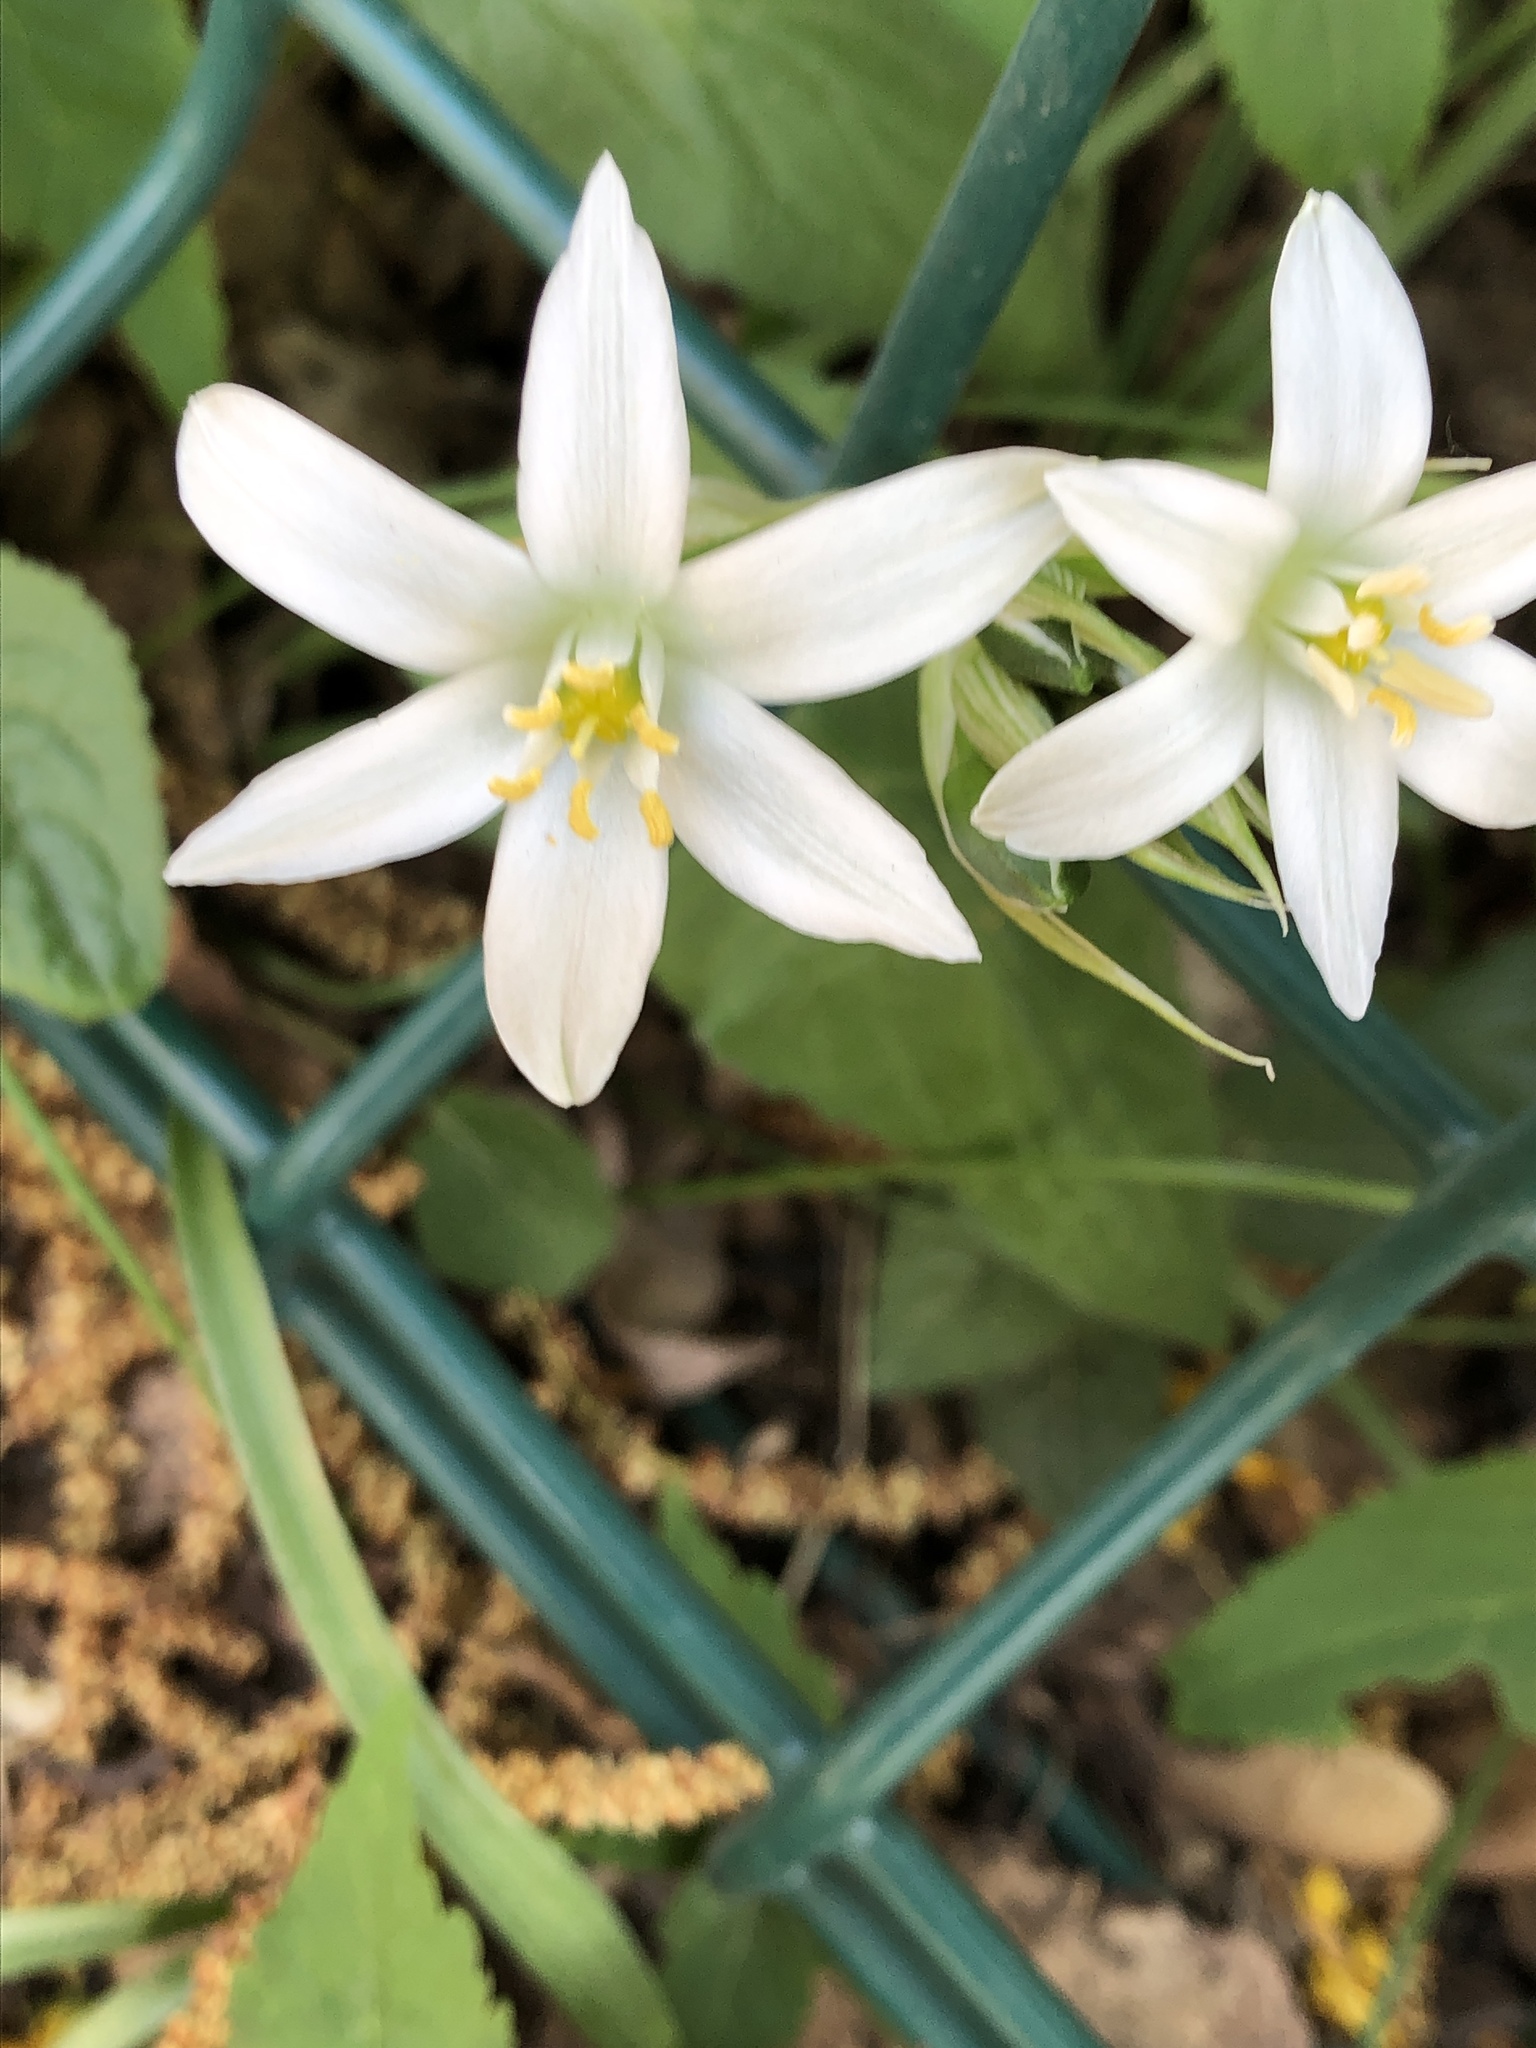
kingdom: Plantae
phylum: Tracheophyta
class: Liliopsida
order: Asparagales
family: Asparagaceae
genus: Ornithogalum
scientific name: Ornithogalum umbellatum
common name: Garden star-of-bethlehem
